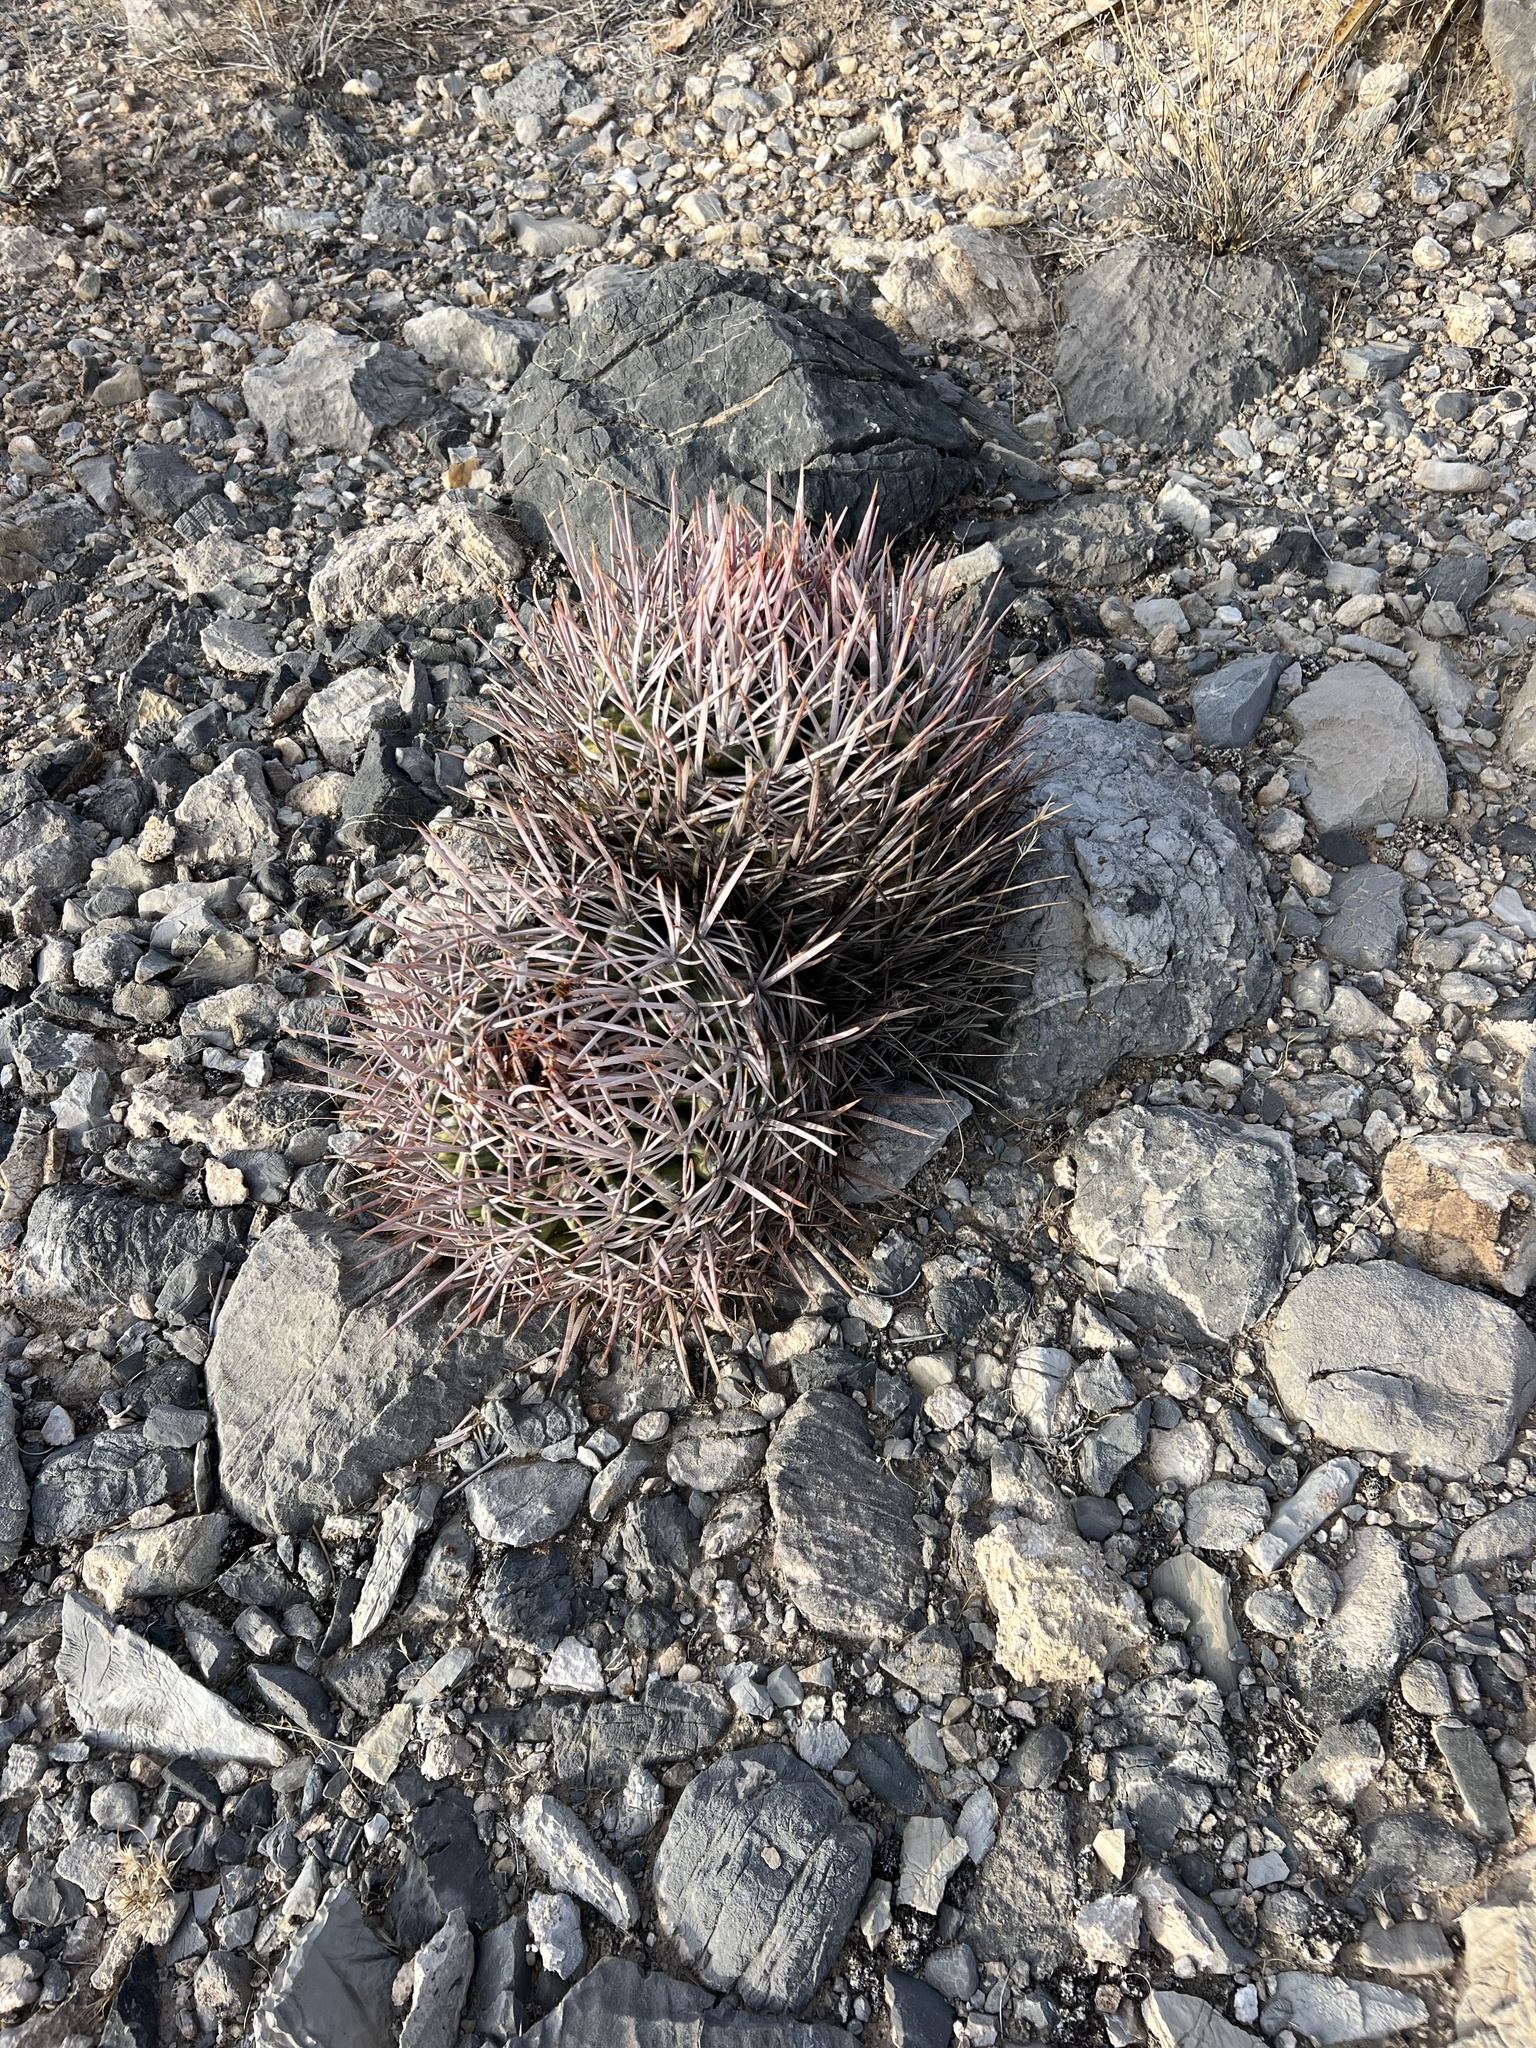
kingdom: Plantae
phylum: Tracheophyta
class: Magnoliopsida
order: Caryophyllales
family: Cactaceae
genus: Echinocactus
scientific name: Echinocactus polycephalus
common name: Cottontop cactus
